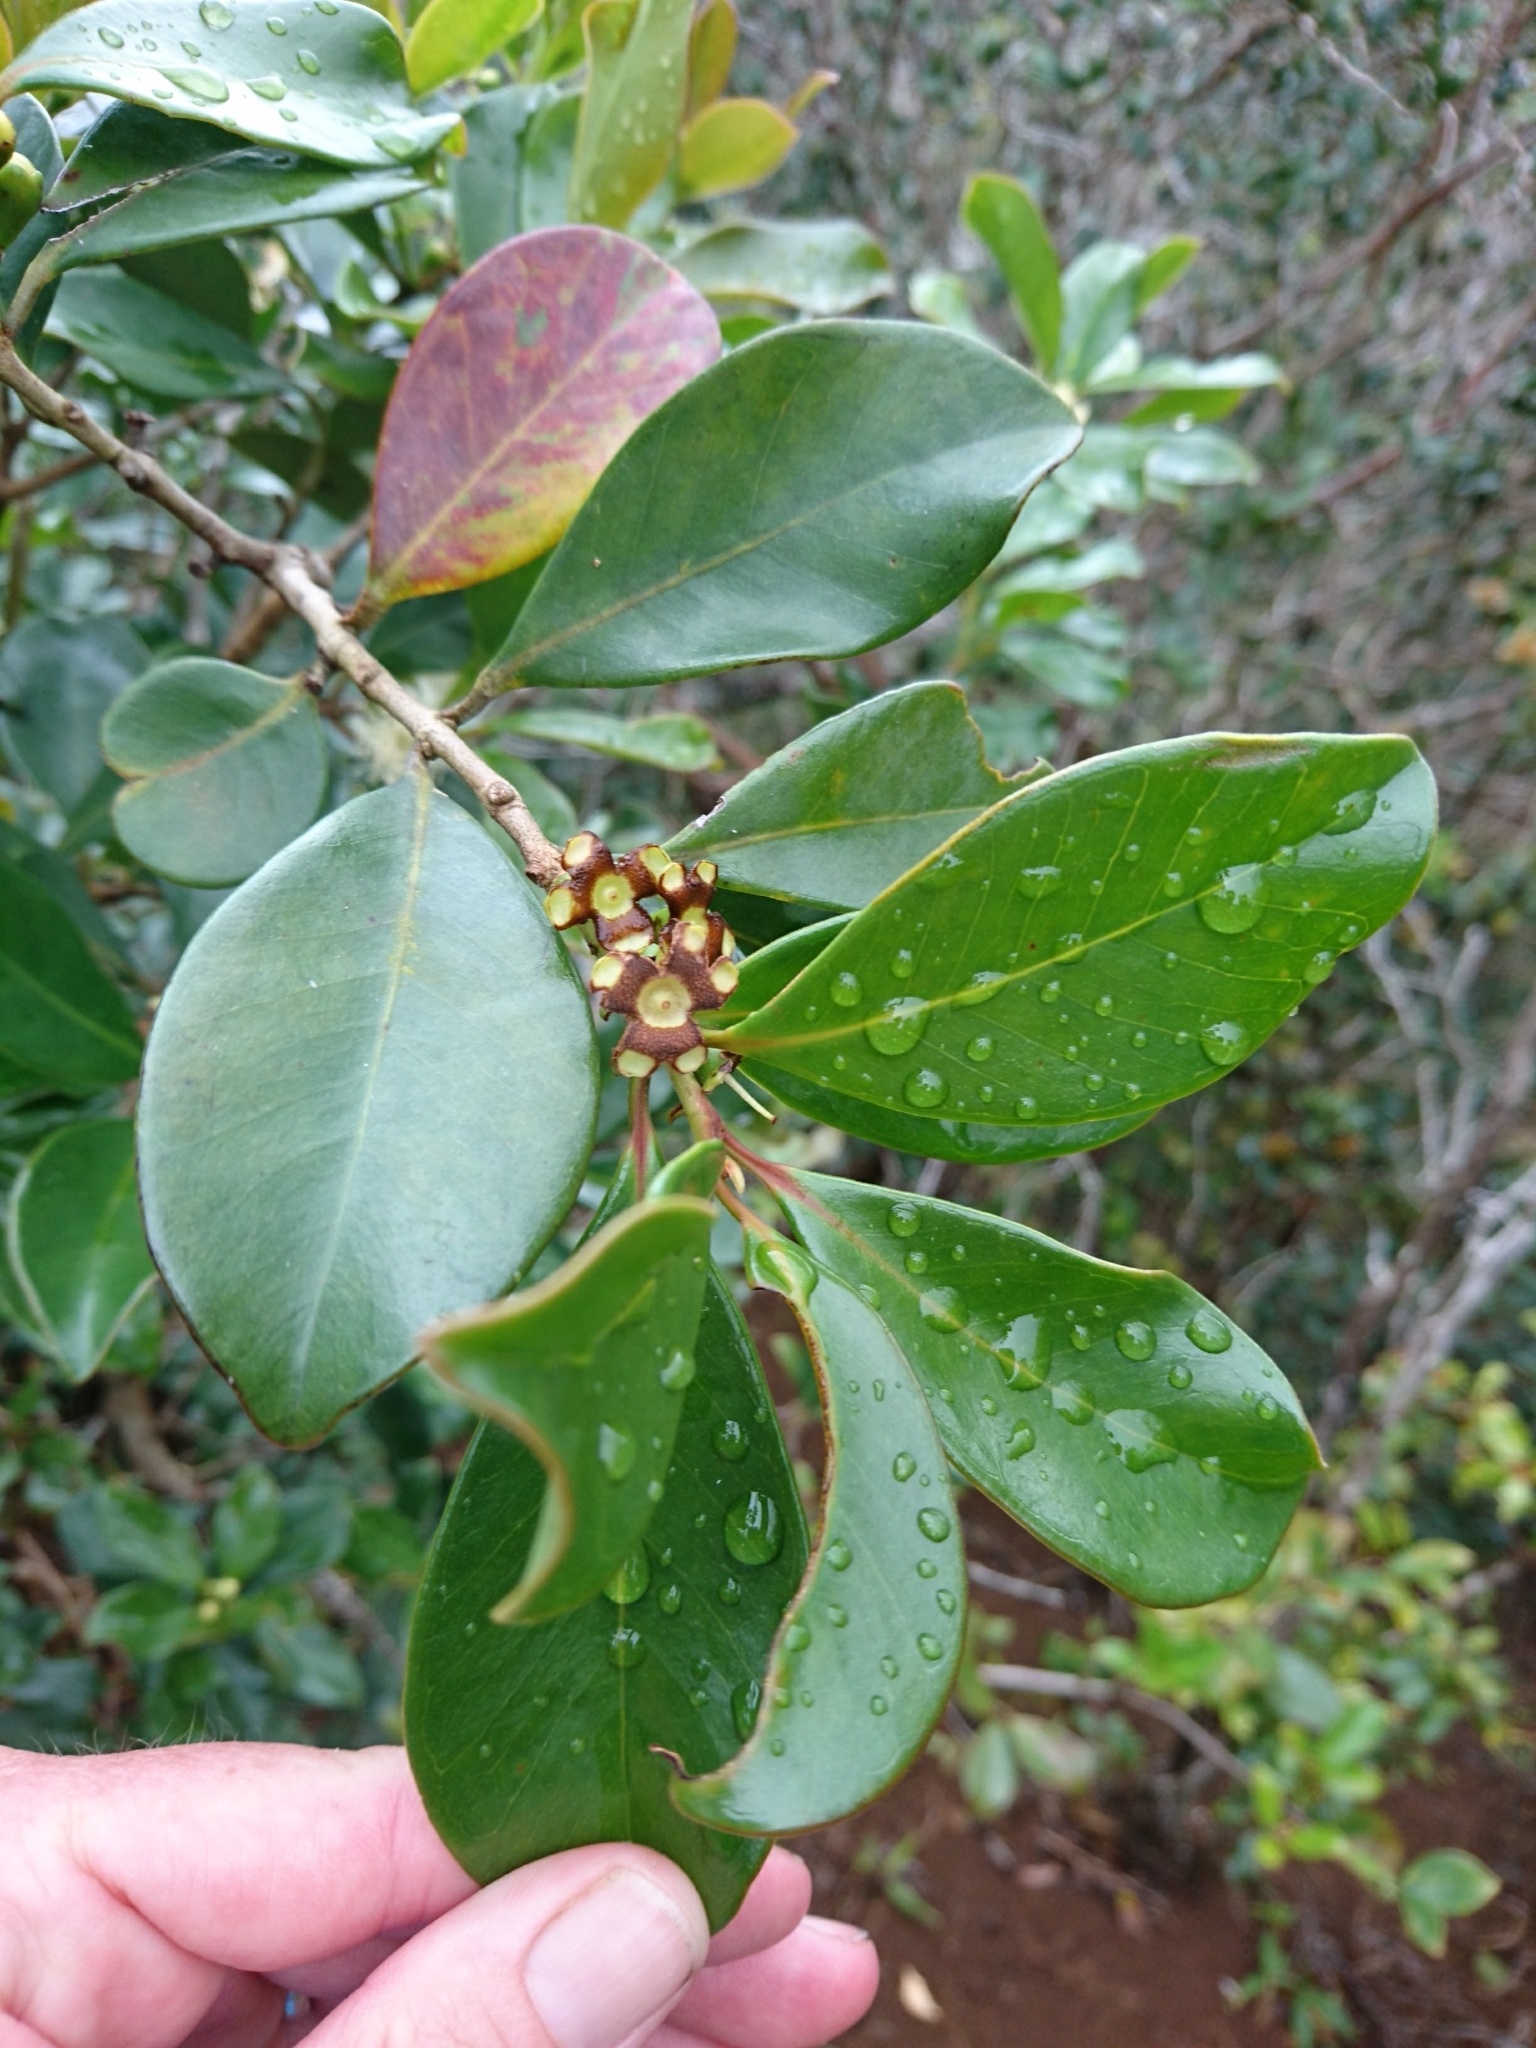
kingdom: Plantae
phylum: Tracheophyta
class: Magnoliopsida
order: Myrtales
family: Myrtaceae
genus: Psidium
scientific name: Psidium cattleianum
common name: Strawberry guava
